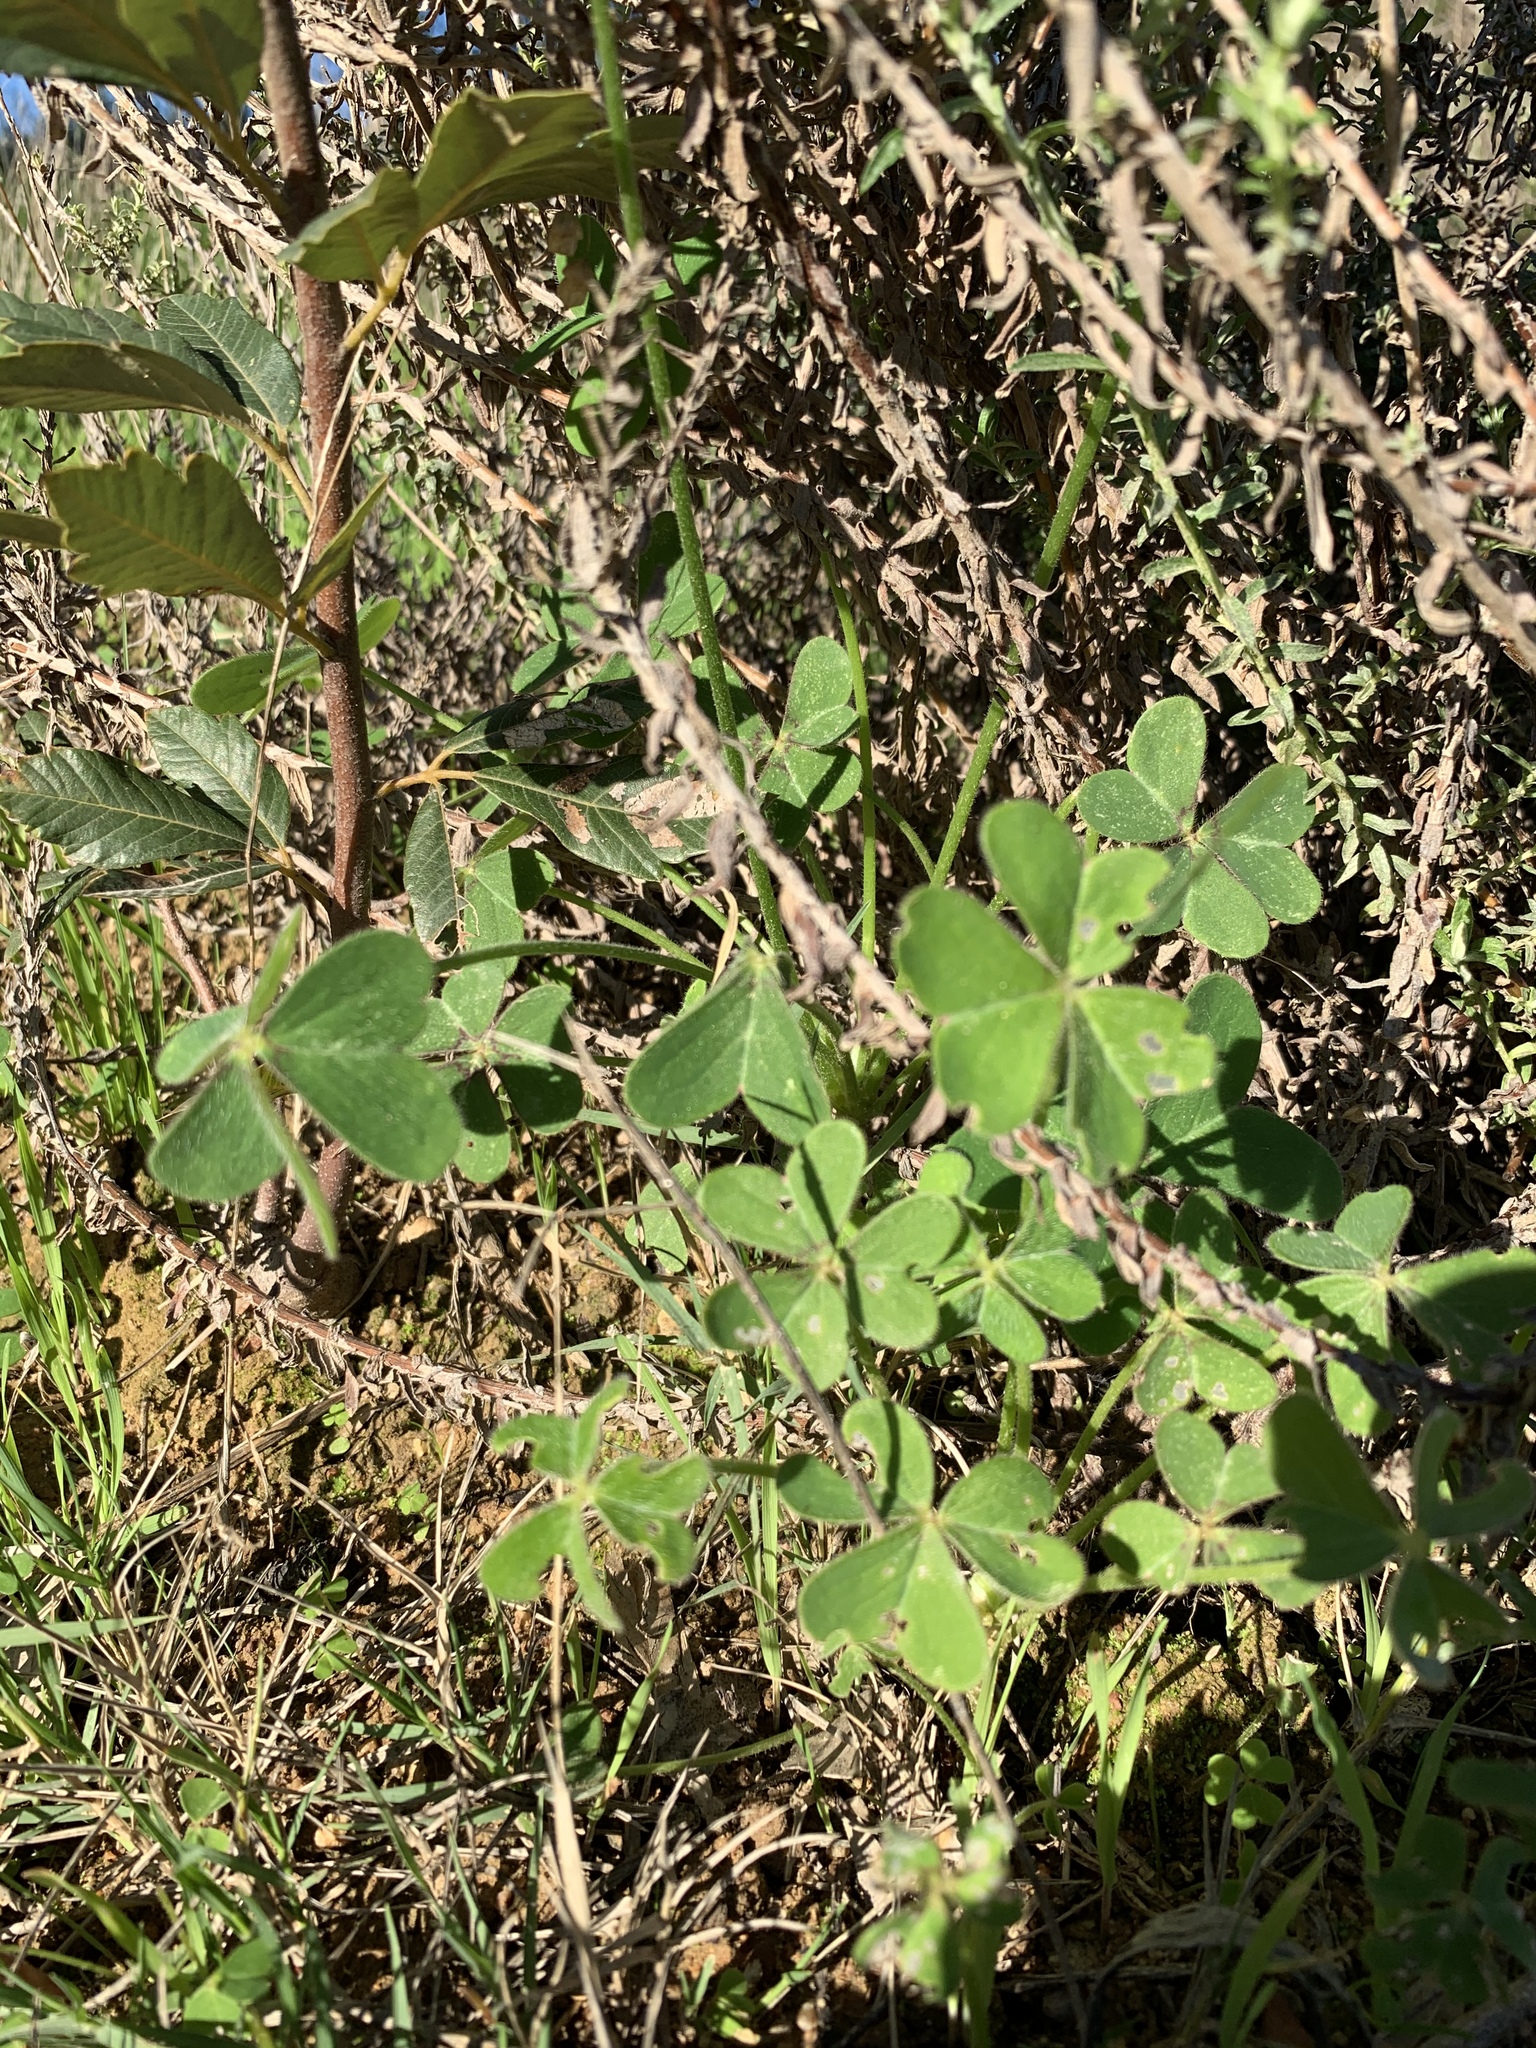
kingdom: Plantae
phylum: Tracheophyta
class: Magnoliopsida
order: Oxalidales
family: Oxalidaceae
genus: Oxalis
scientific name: Oxalis pes-caprae
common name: Bermuda-buttercup
